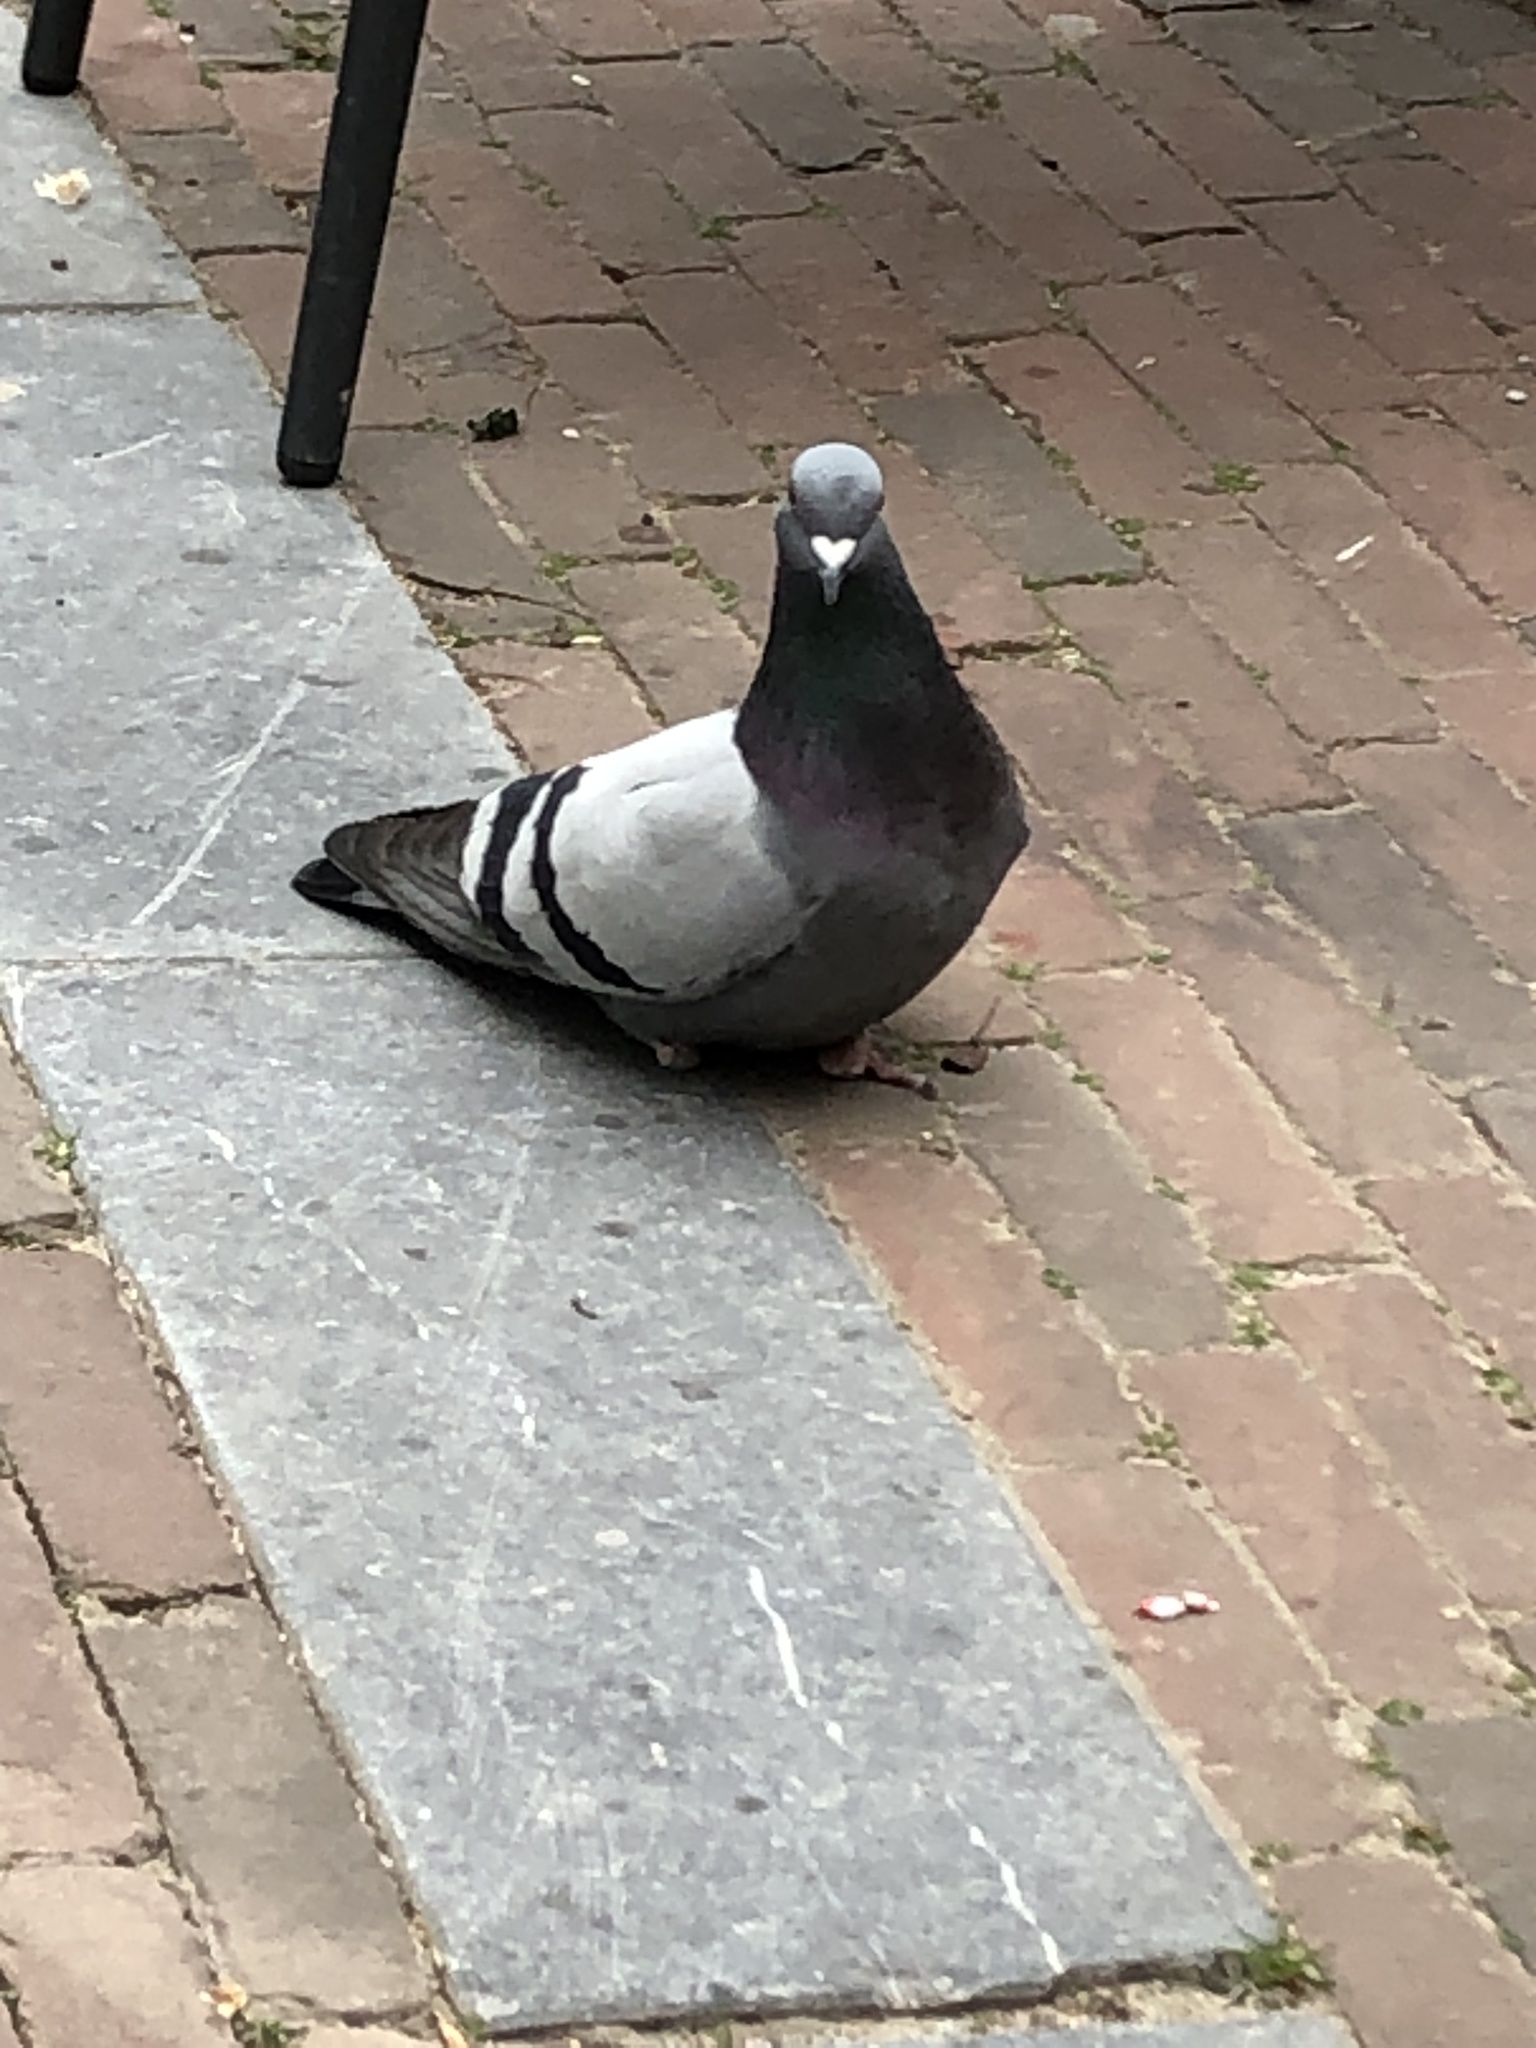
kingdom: Animalia
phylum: Chordata
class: Aves
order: Columbiformes
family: Columbidae
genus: Columba
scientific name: Columba livia
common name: Rock pigeon
